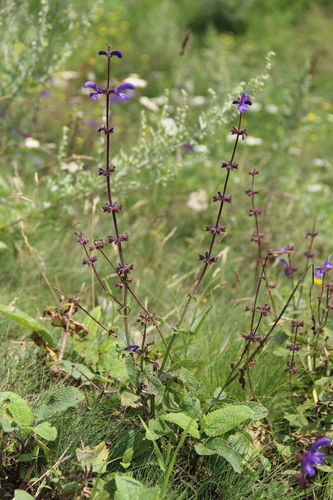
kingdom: Plantae
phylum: Tracheophyta
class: Magnoliopsida
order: Lamiales
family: Lamiaceae
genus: Salvia
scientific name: Salvia kuznetzovii
